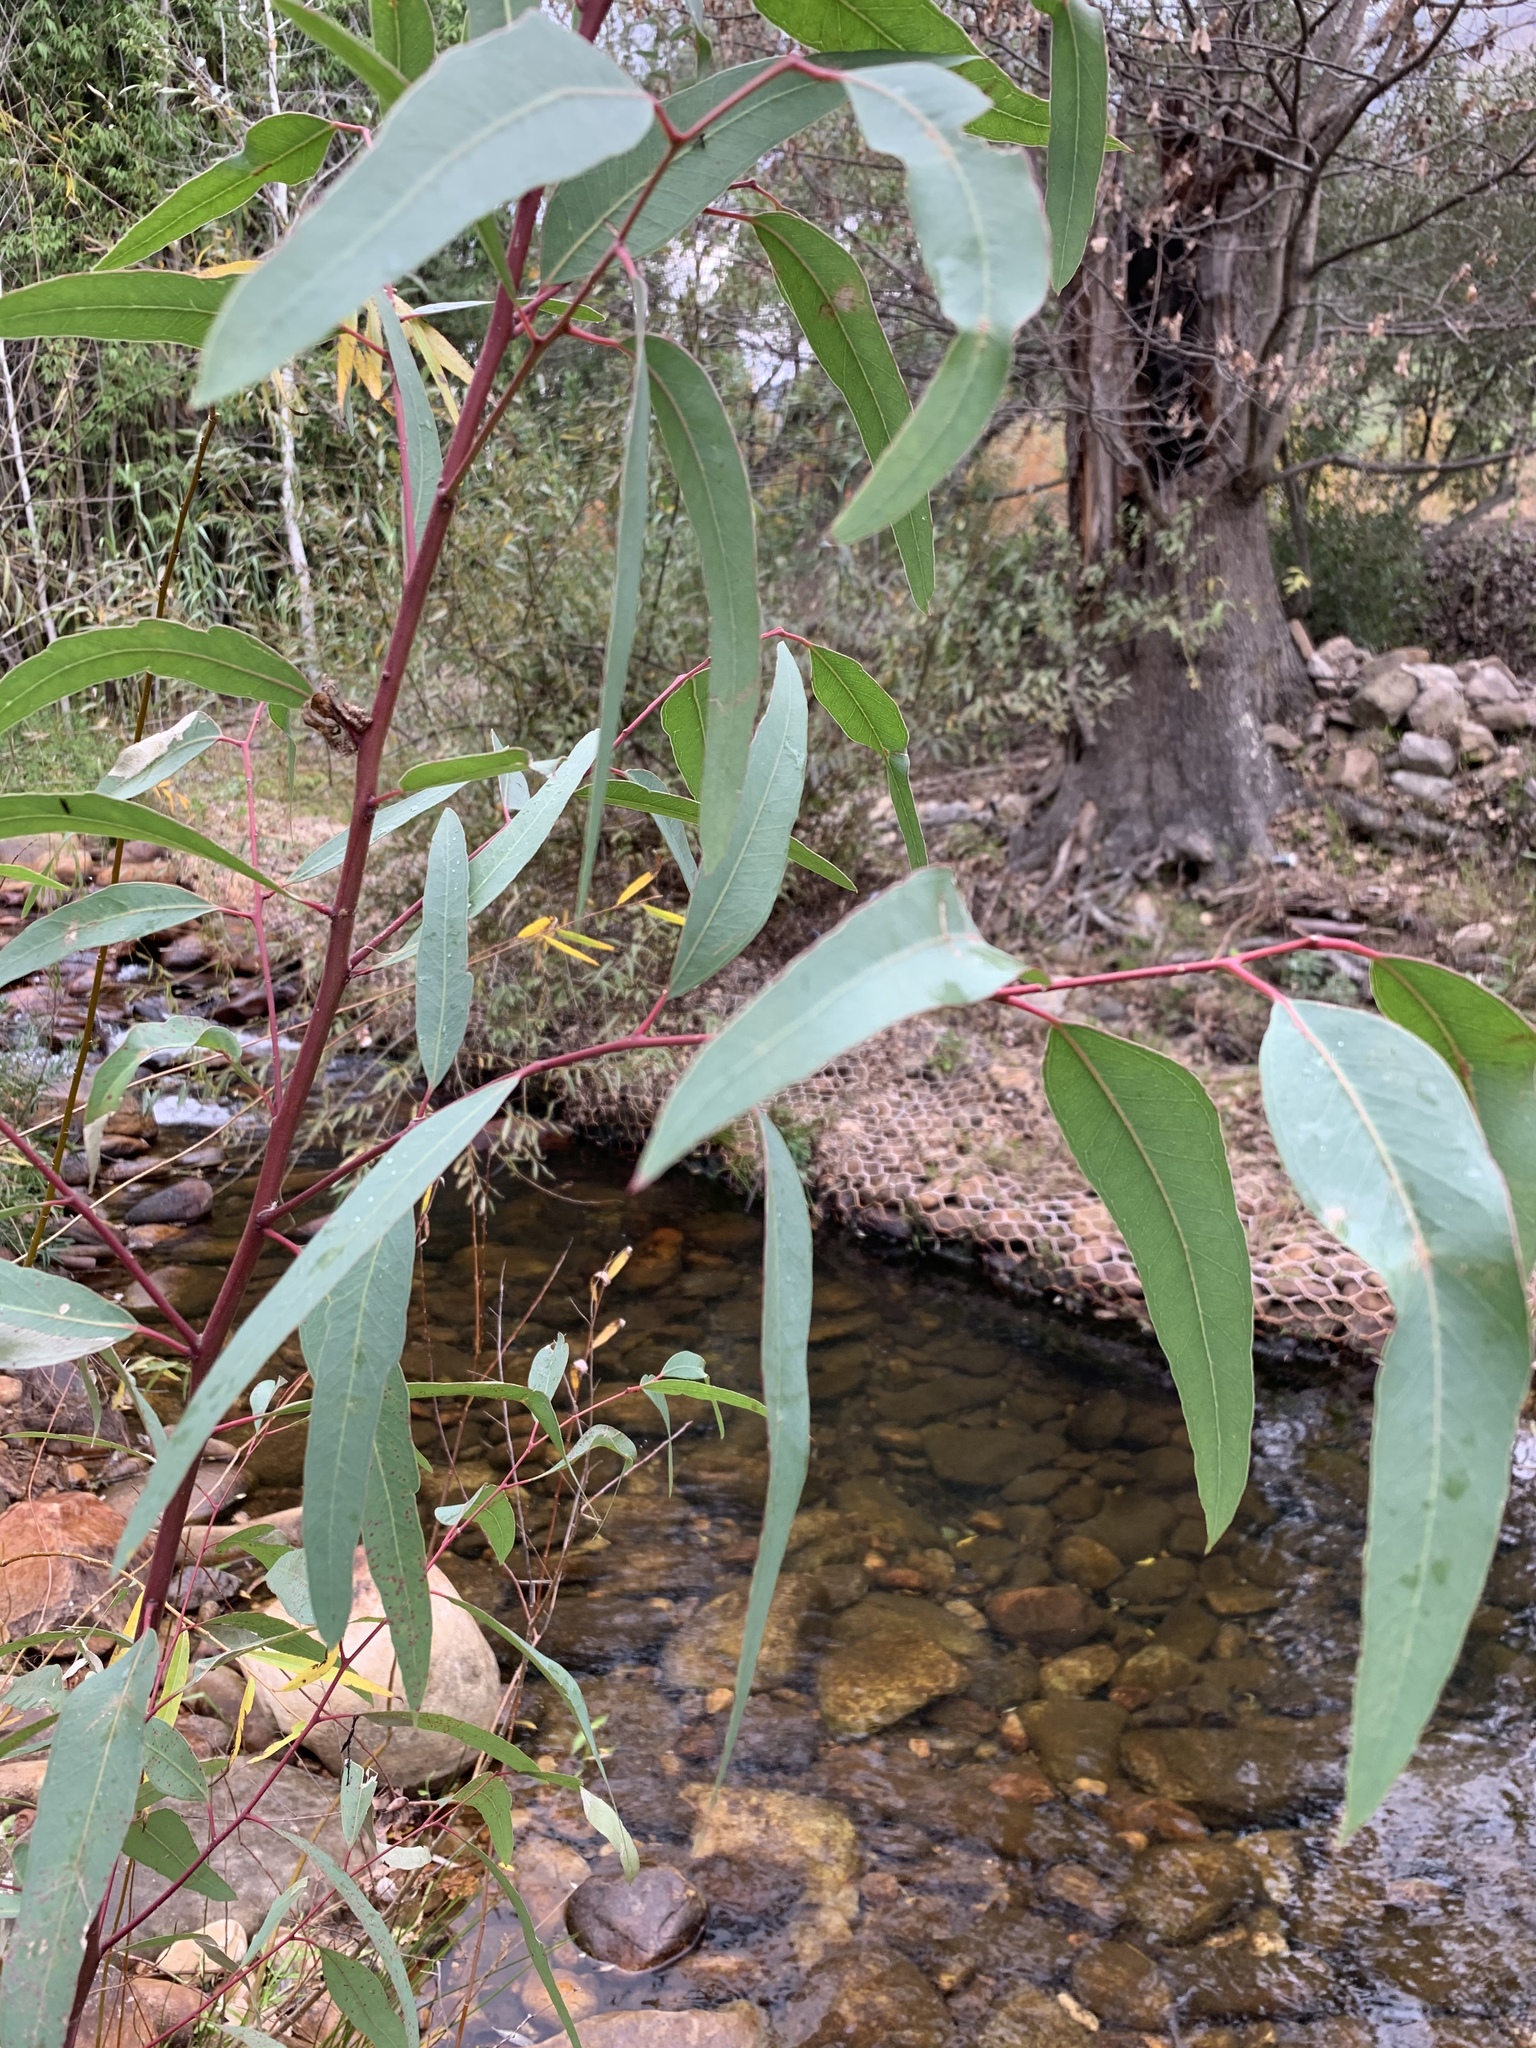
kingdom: Plantae
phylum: Tracheophyta
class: Magnoliopsida
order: Myrtales
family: Myrtaceae
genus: Eucalyptus
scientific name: Eucalyptus camaldulensis
